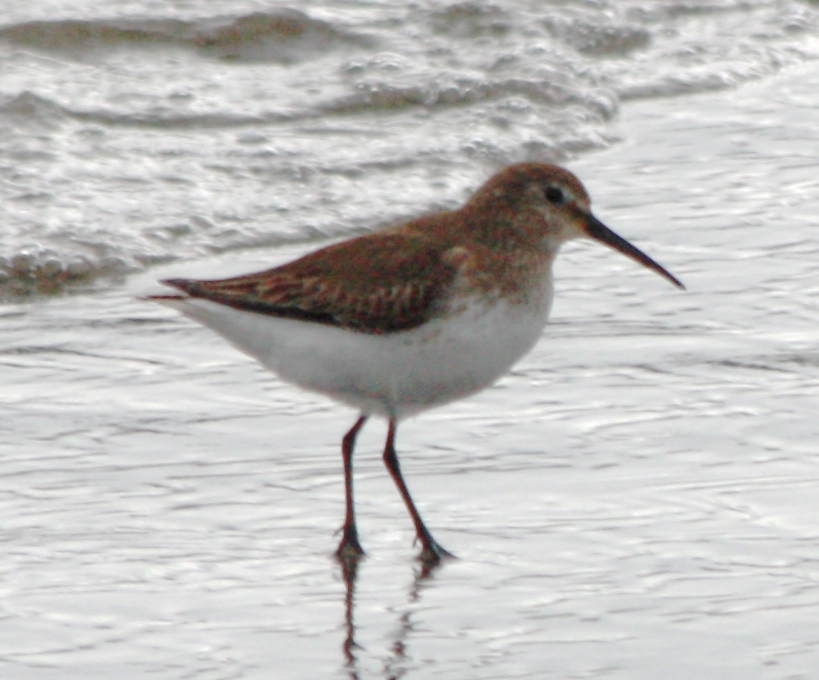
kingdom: Animalia
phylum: Chordata
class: Aves
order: Charadriiformes
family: Scolopacidae
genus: Calidris
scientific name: Calidris alpina
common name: Dunlin
